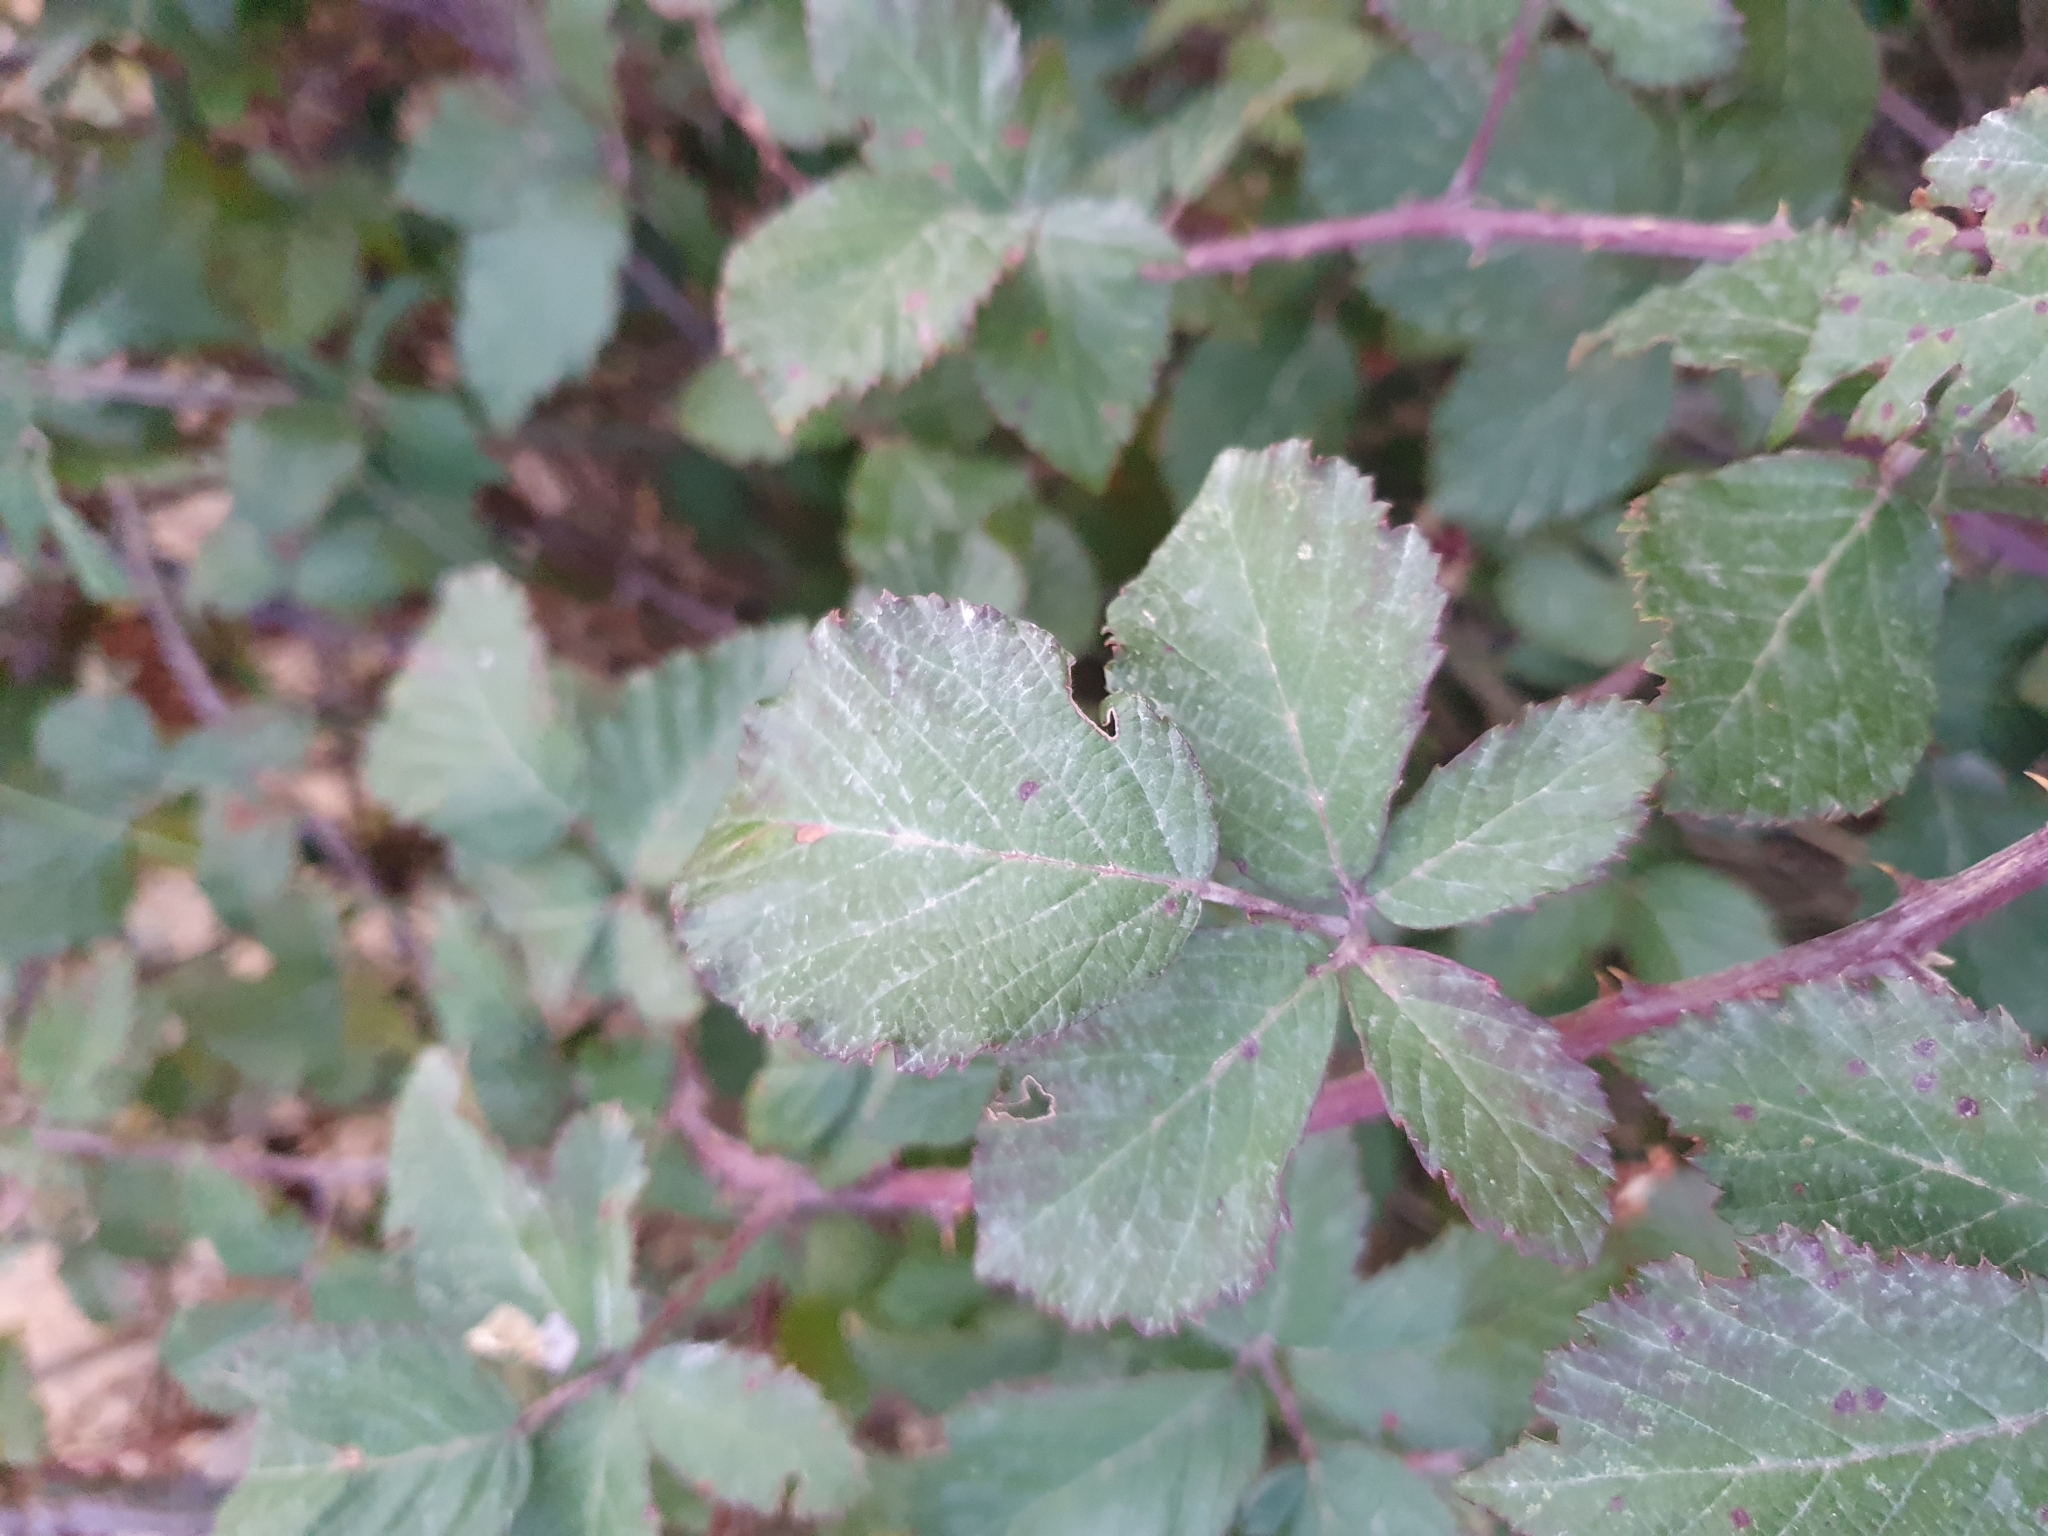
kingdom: Plantae
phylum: Tracheophyta
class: Magnoliopsida
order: Rosales
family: Rosaceae
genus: Rubus
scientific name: Rubus ulmifolius
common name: Elmleaf blackberry
